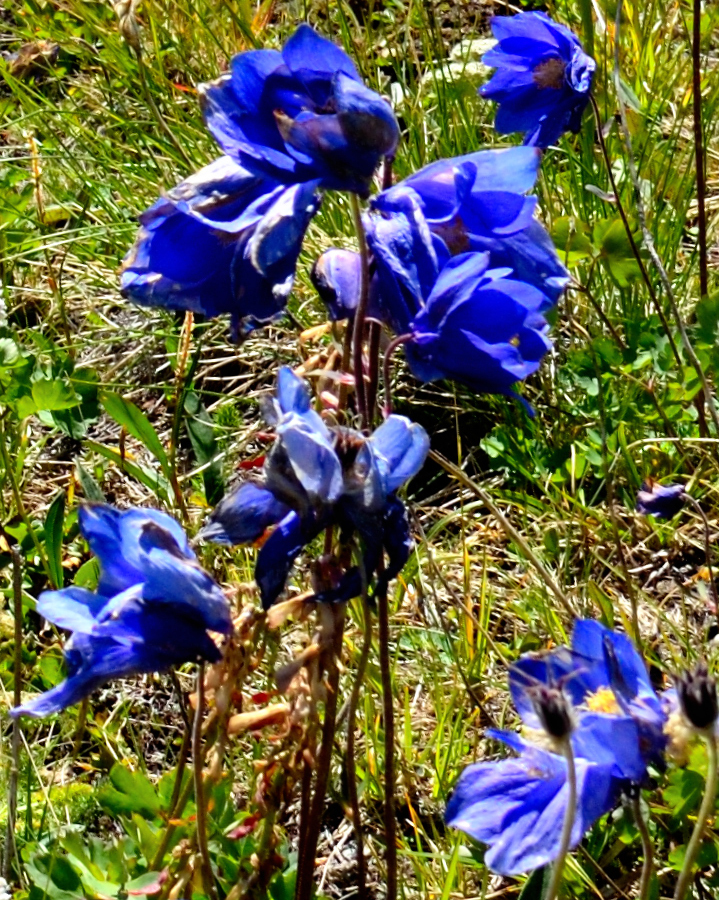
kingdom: Plantae
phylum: Tracheophyta
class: Magnoliopsida
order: Ranunculales
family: Ranunculaceae
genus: Aquilegia
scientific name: Aquilegia glandulosa
